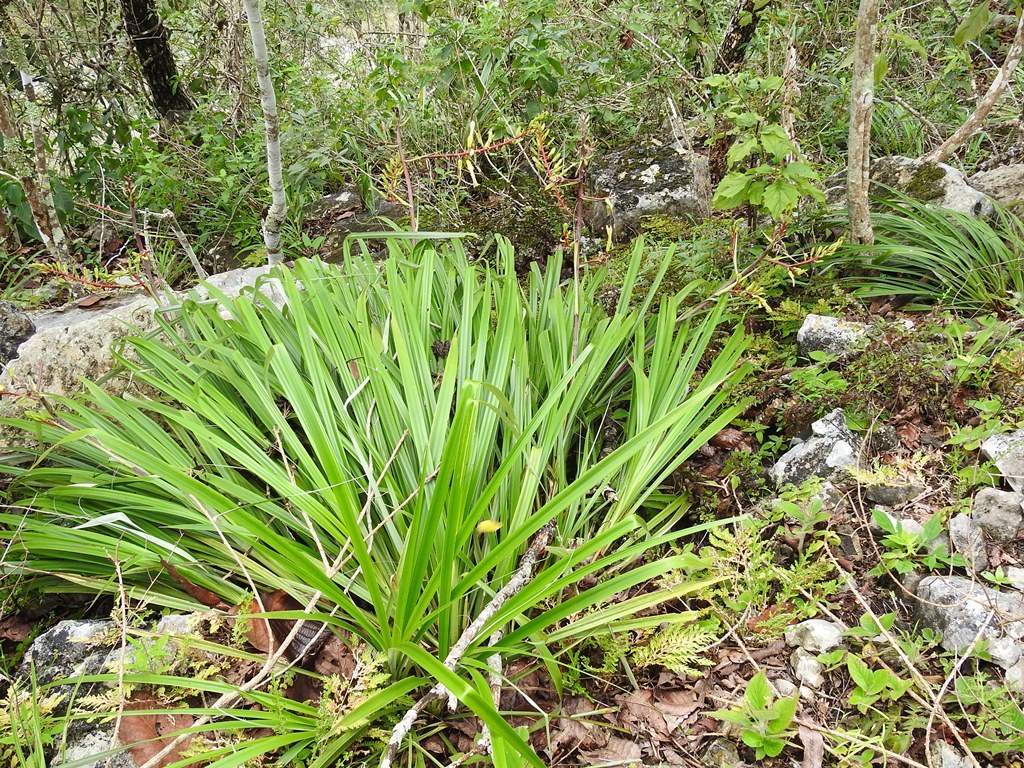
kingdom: Plantae
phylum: Tracheophyta
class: Liliopsida
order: Poales
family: Bromeliaceae
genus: Pitcairnia
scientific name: Pitcairnia breedlovei
